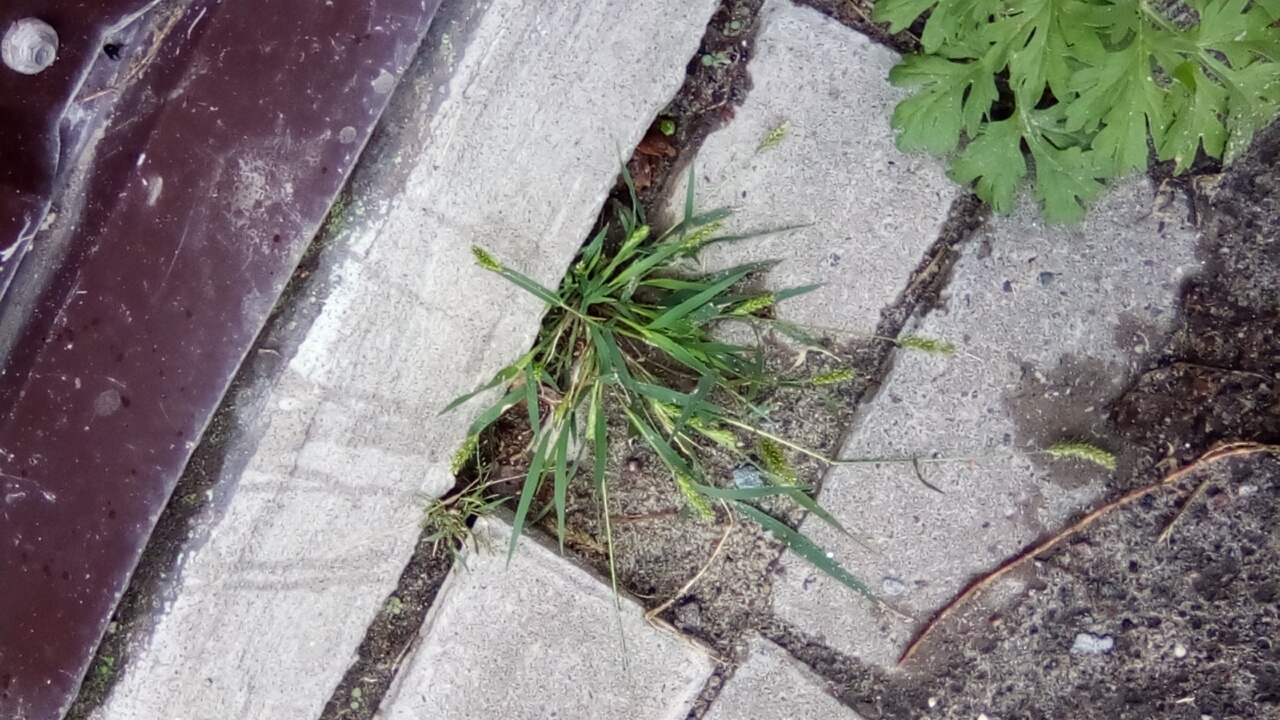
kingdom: Plantae
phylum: Tracheophyta
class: Liliopsida
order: Poales
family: Poaceae
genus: Setaria
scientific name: Setaria viridis
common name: Green bristlegrass
